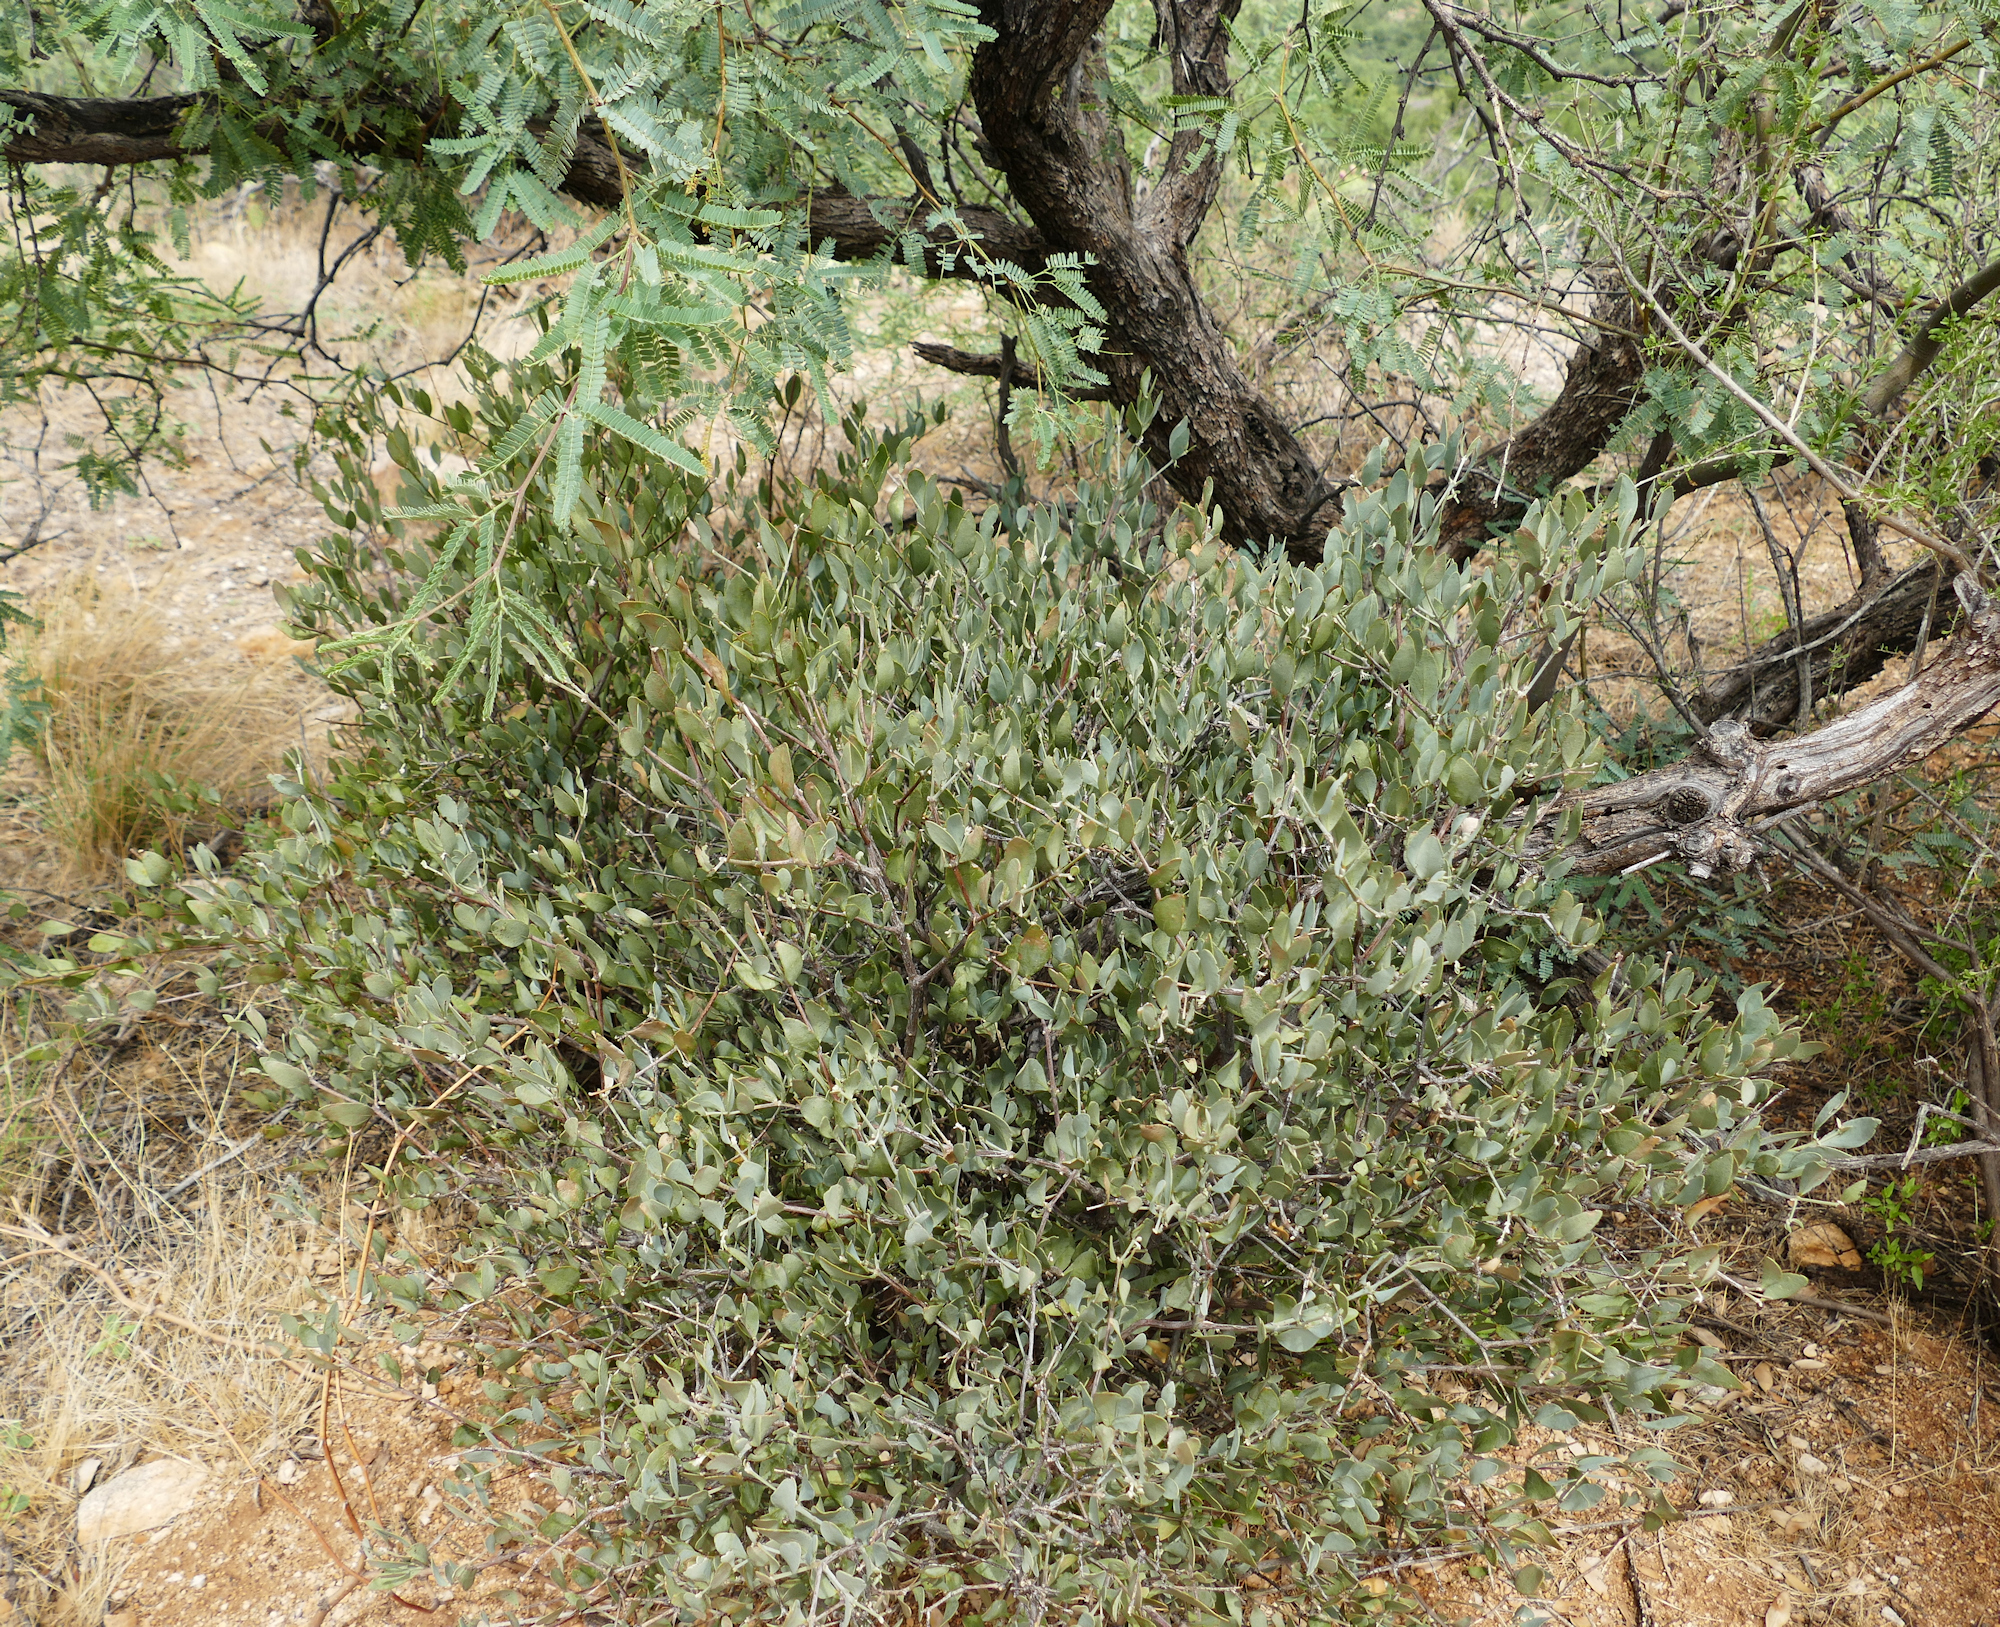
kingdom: Plantae
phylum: Tracheophyta
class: Magnoliopsida
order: Caryophyllales
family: Simmondsiaceae
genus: Simmondsia
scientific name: Simmondsia chinensis
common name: Jojoba
